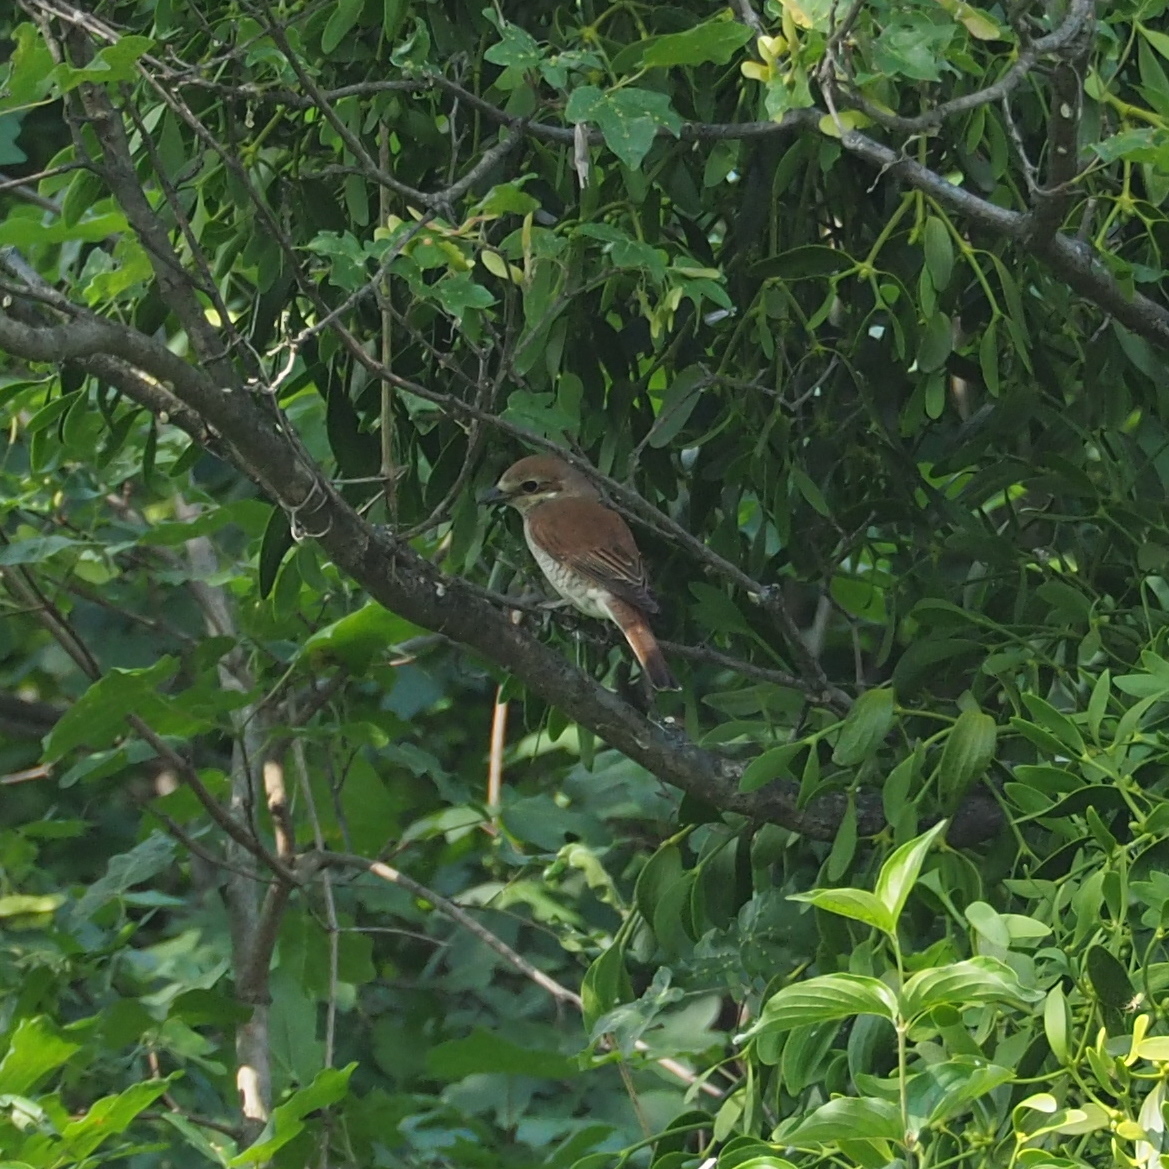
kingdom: Animalia
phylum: Chordata
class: Aves
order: Passeriformes
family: Laniidae
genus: Lanius
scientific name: Lanius collurio
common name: Red-backed shrike
